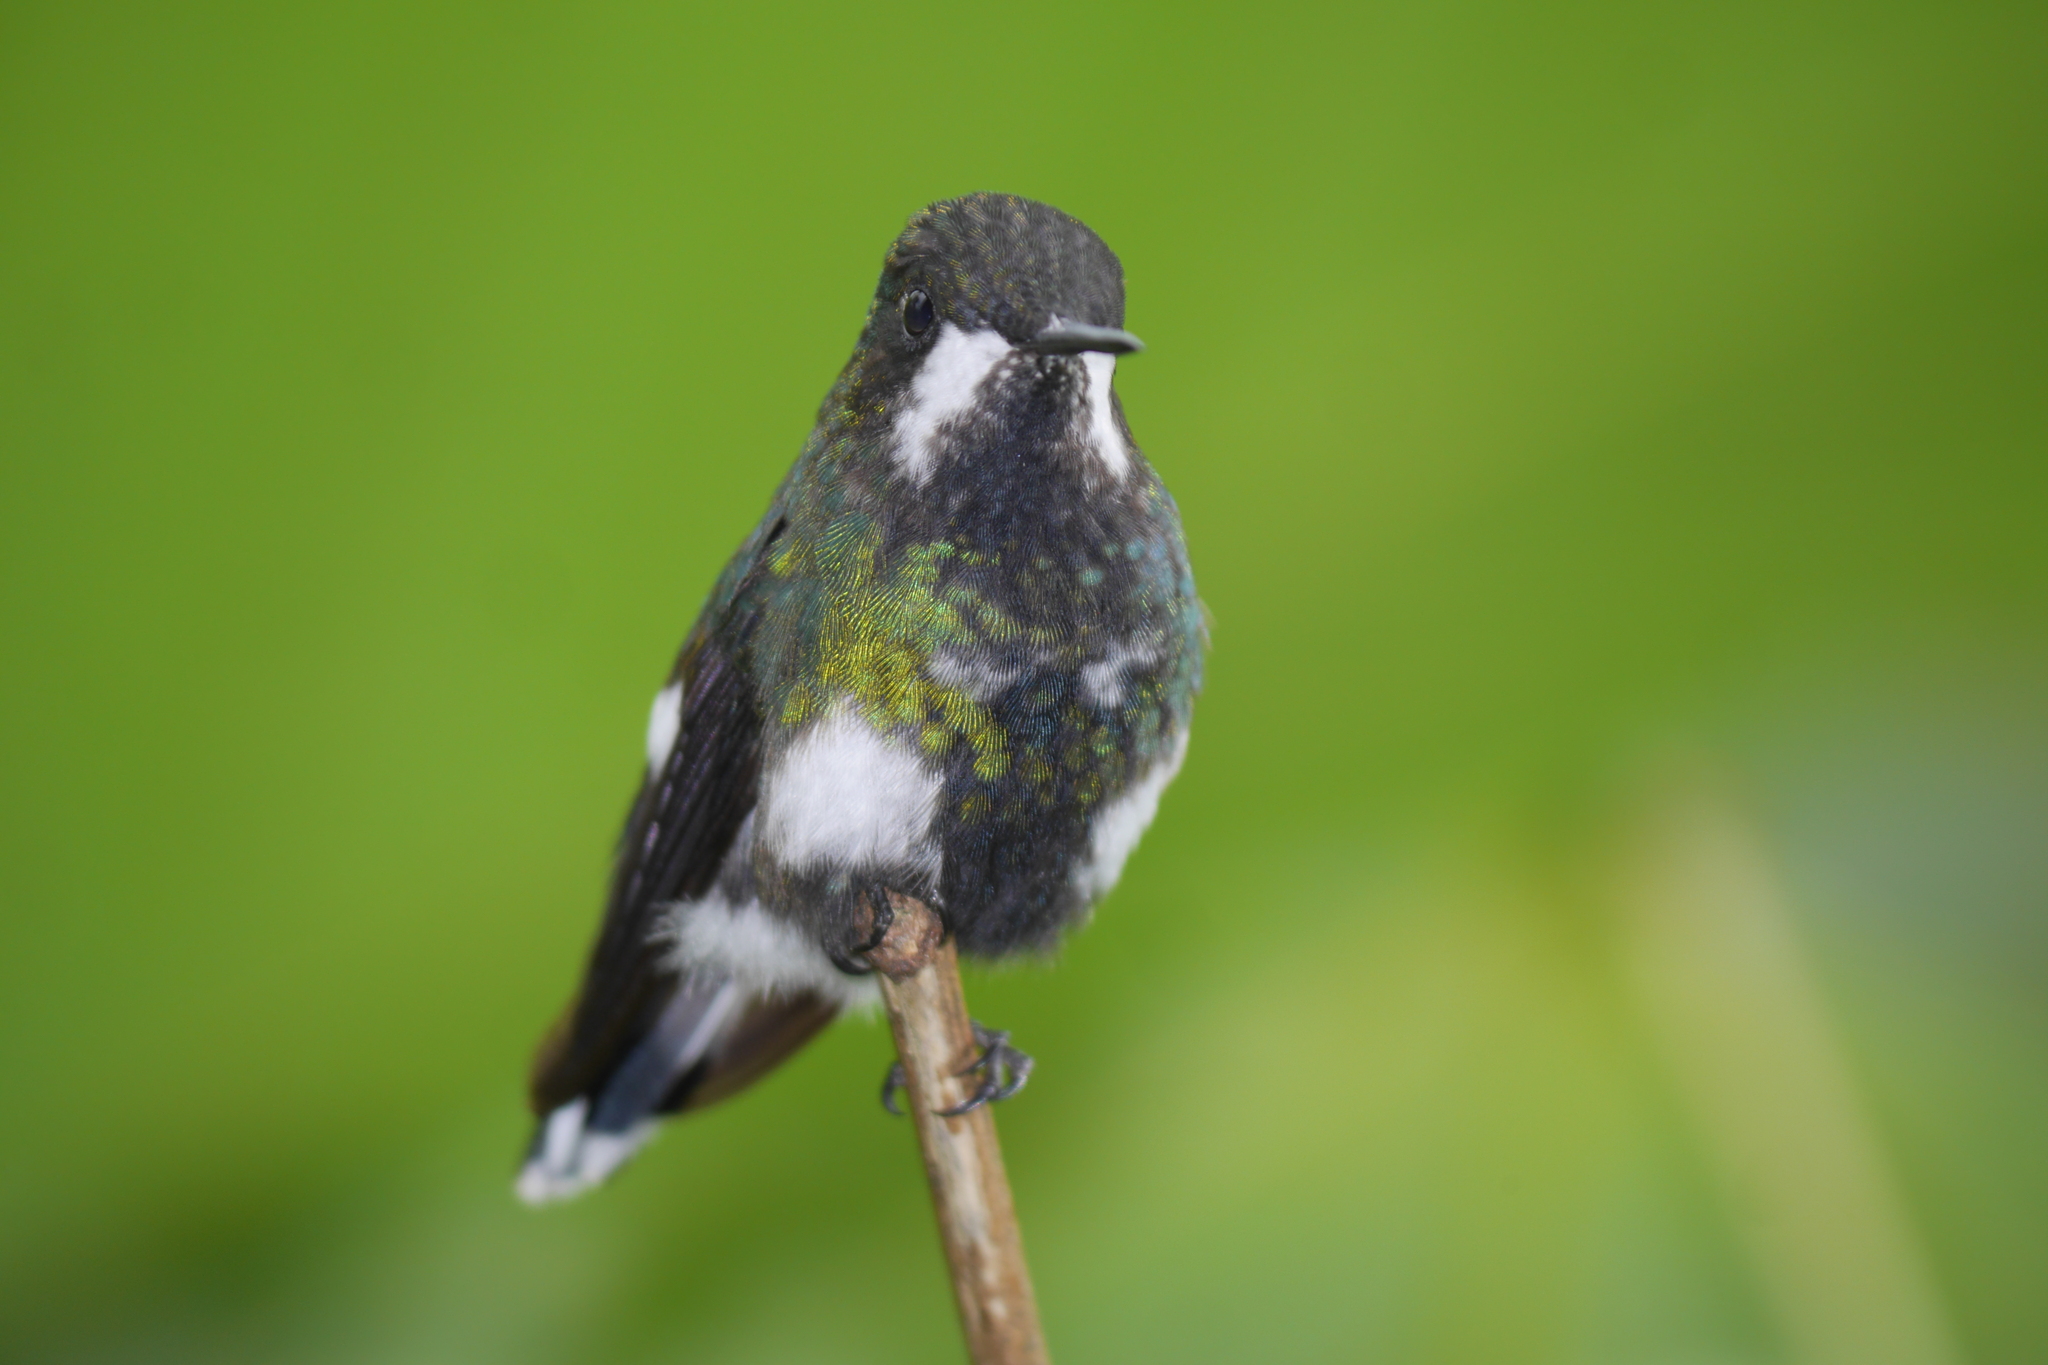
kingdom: Animalia
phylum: Chordata
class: Aves
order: Apodiformes
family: Trochilidae
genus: Discosura
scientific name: Discosura conversii
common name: Green thorntail
